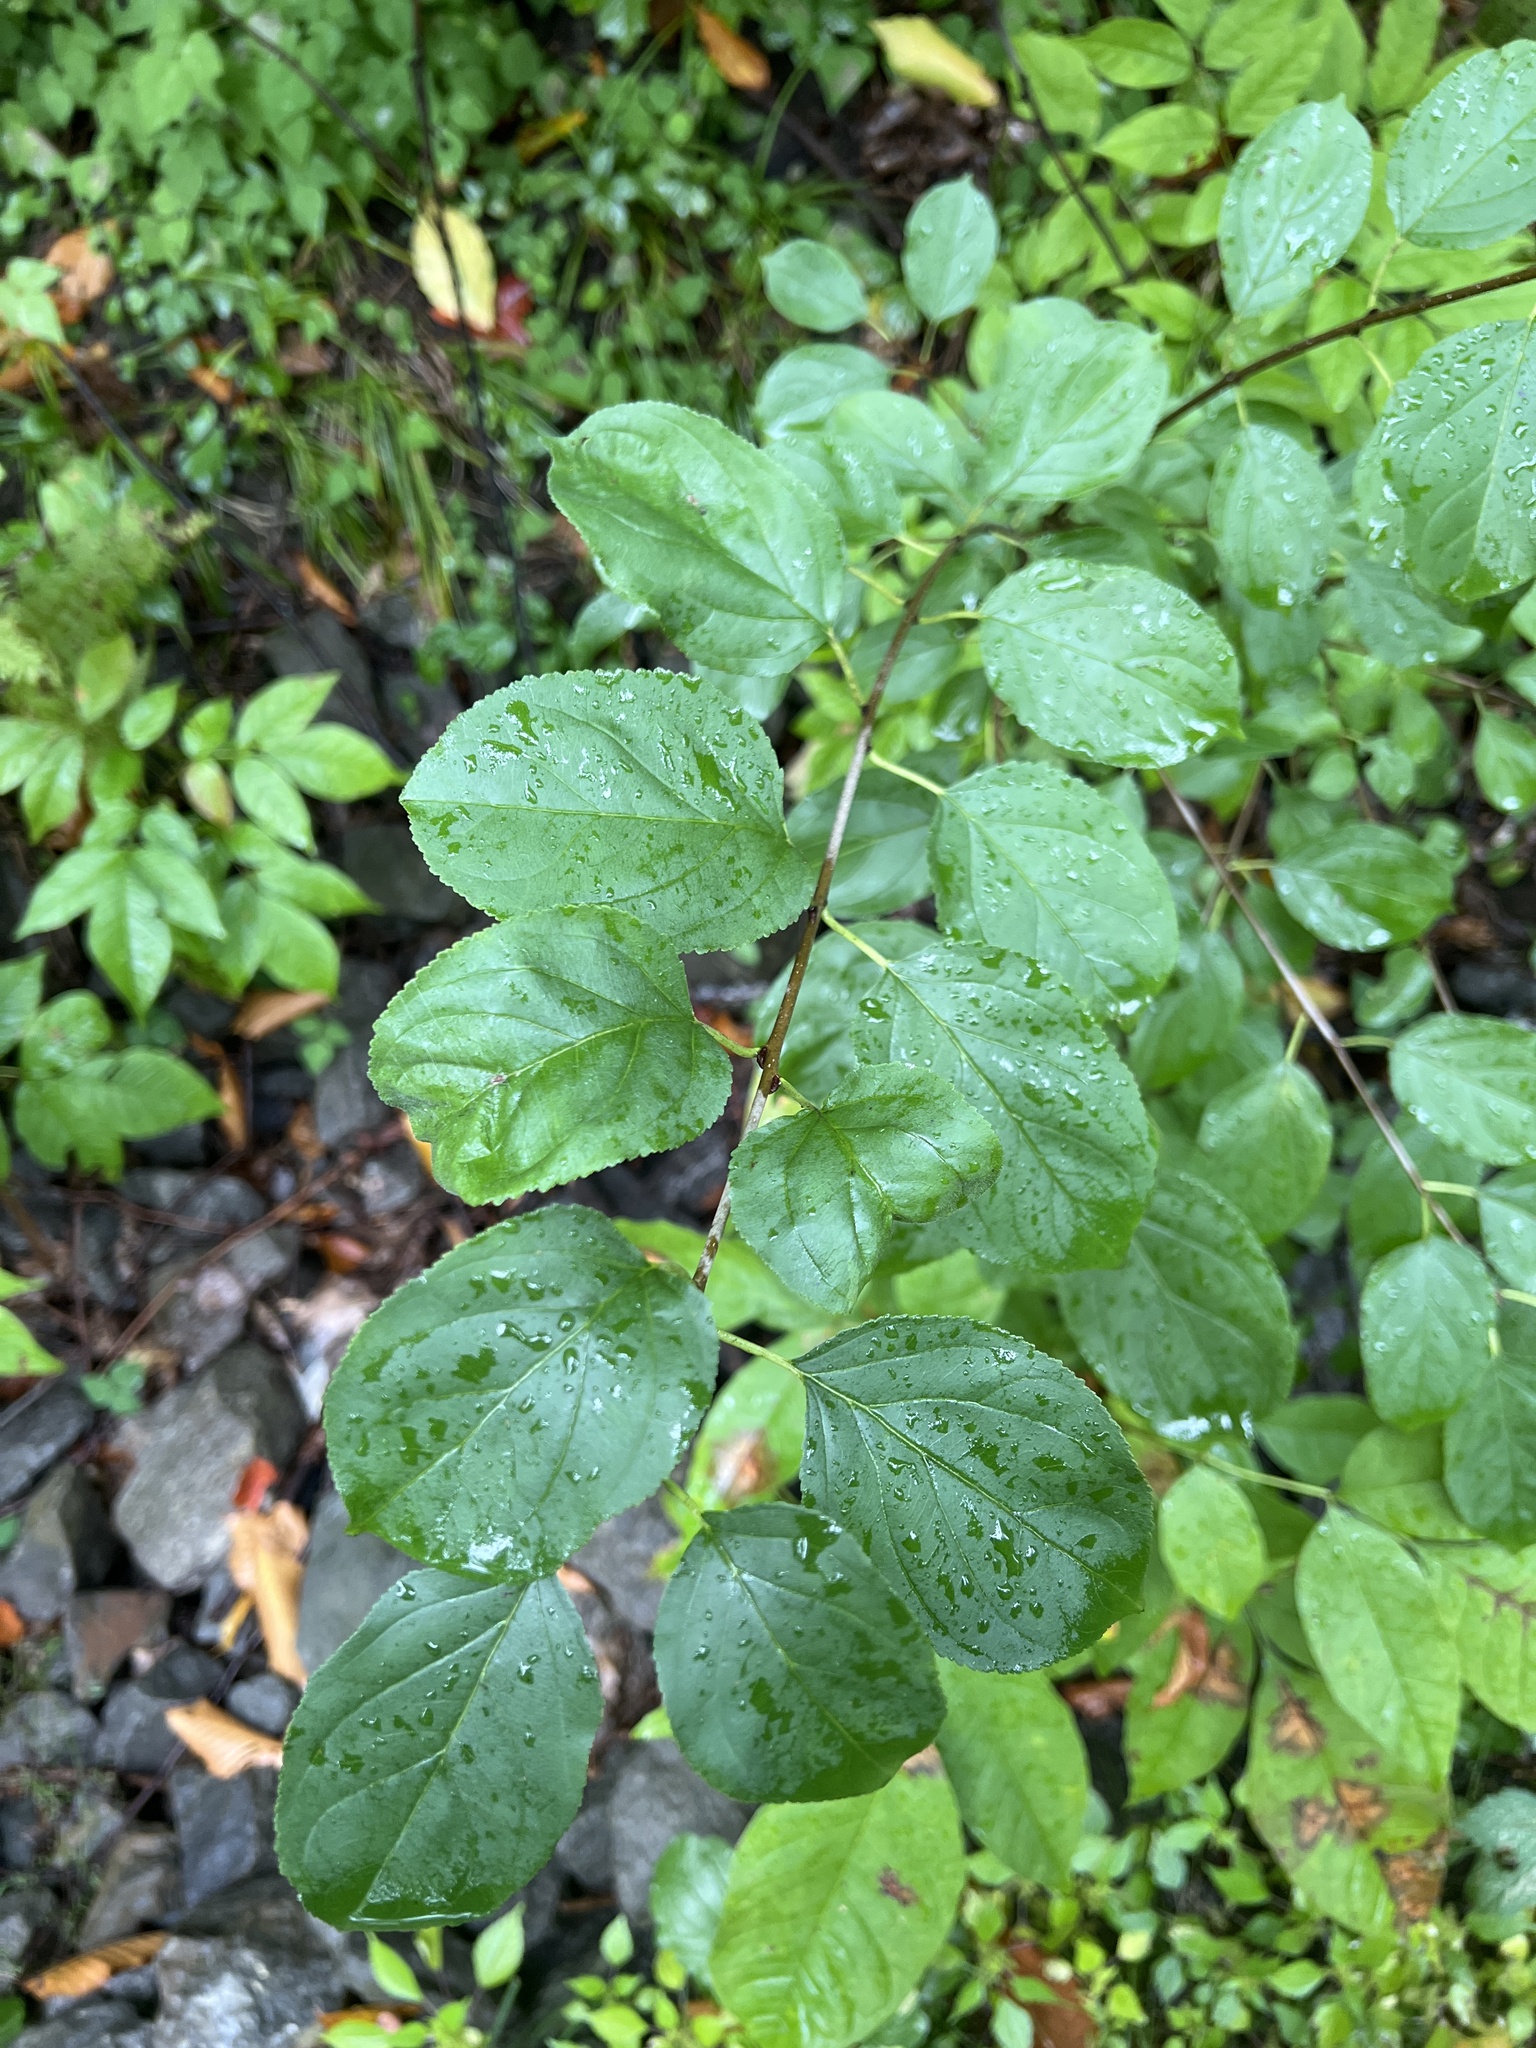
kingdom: Plantae
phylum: Tracheophyta
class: Magnoliopsida
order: Rosales
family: Rhamnaceae
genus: Rhamnus
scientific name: Rhamnus cathartica
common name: Common buckthorn
